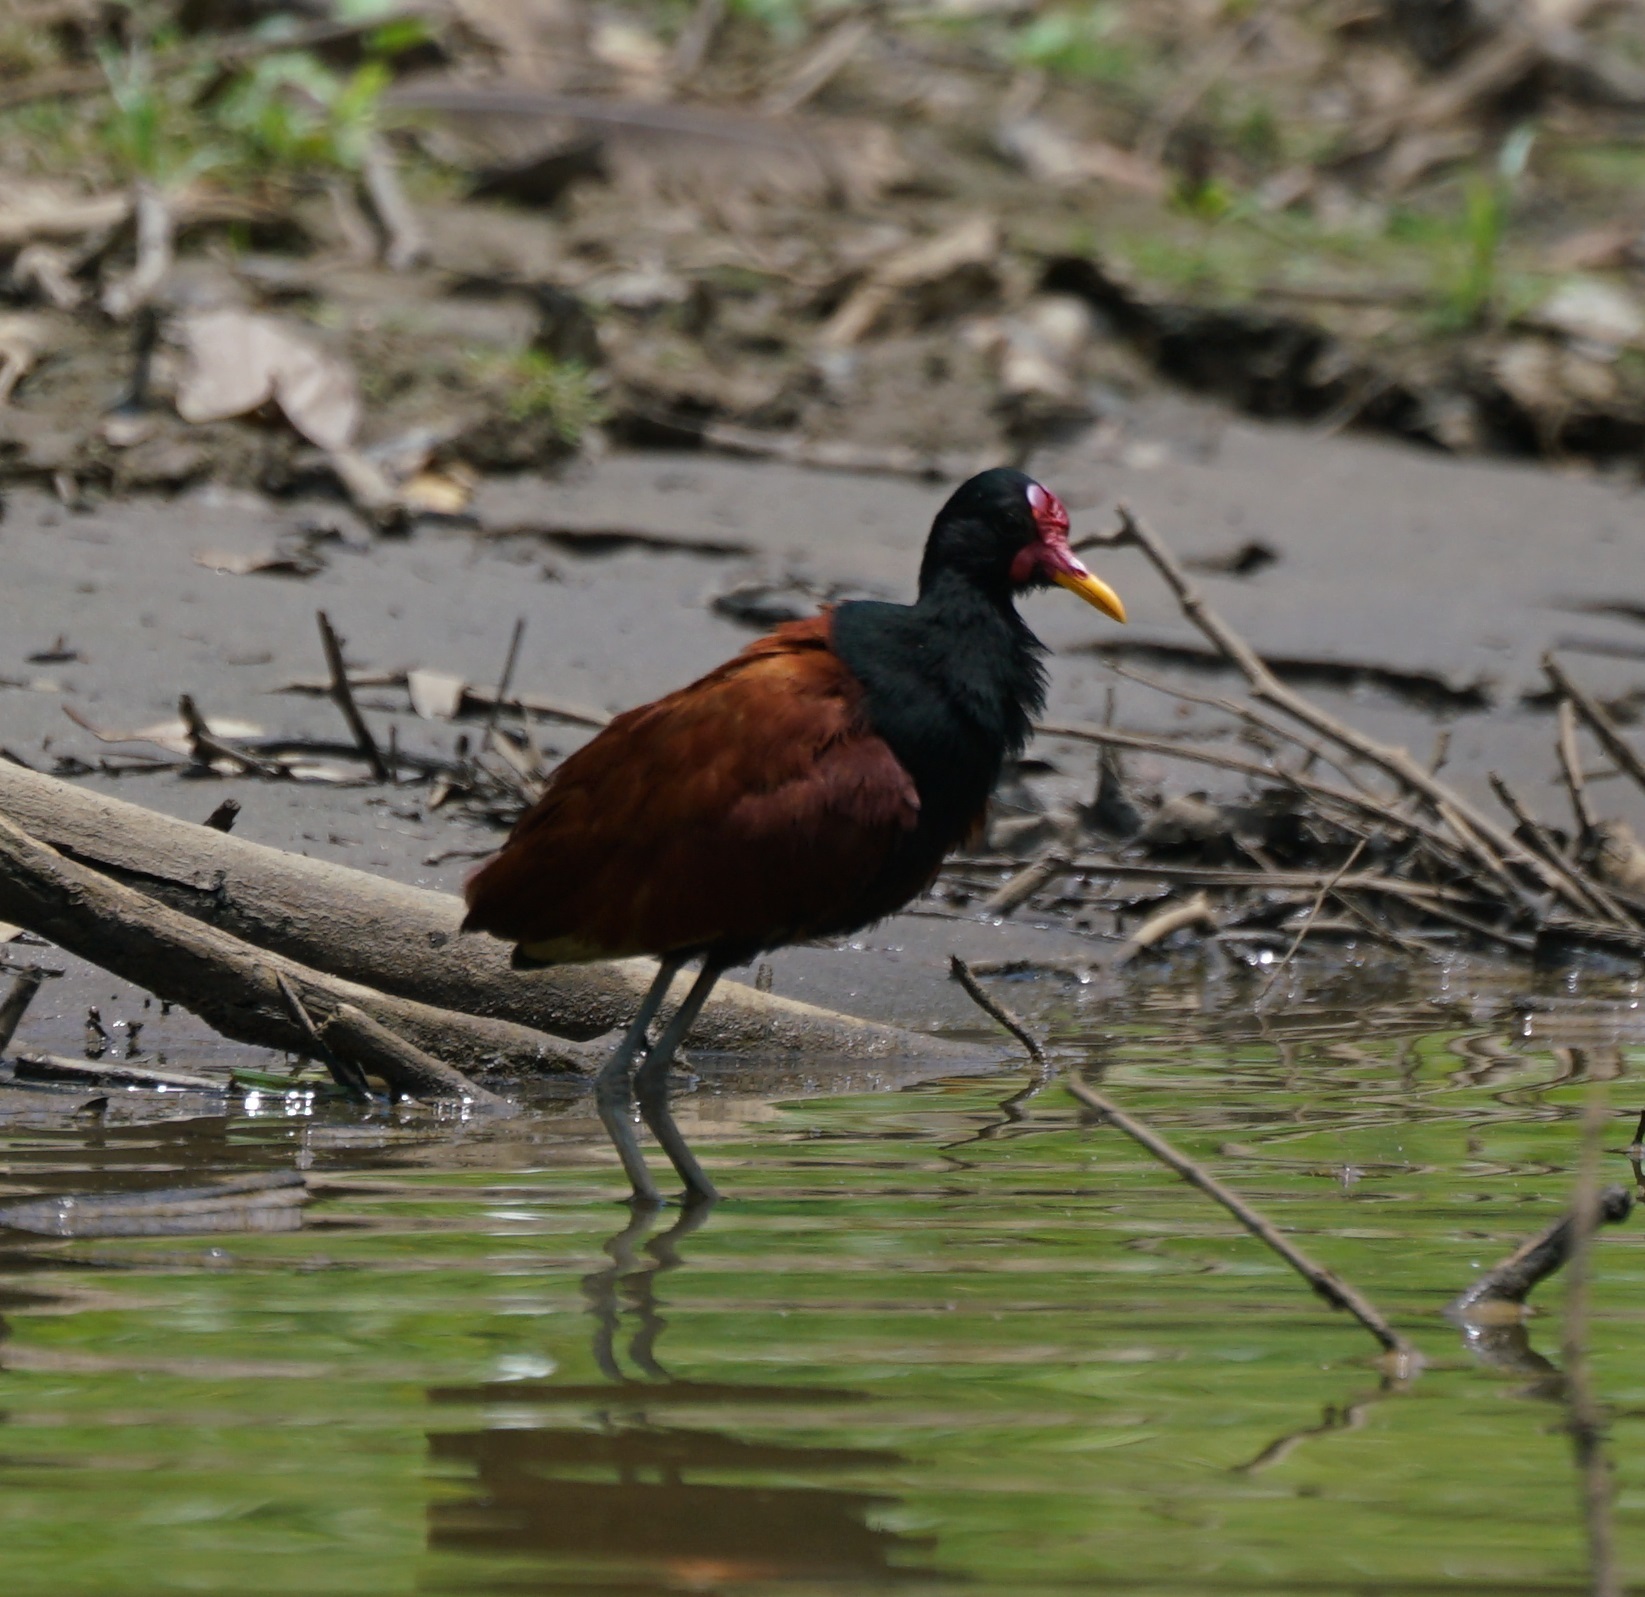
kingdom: Animalia
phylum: Chordata
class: Aves
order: Charadriiformes
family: Jacanidae
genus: Jacana
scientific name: Jacana jacana
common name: Wattled jacana
